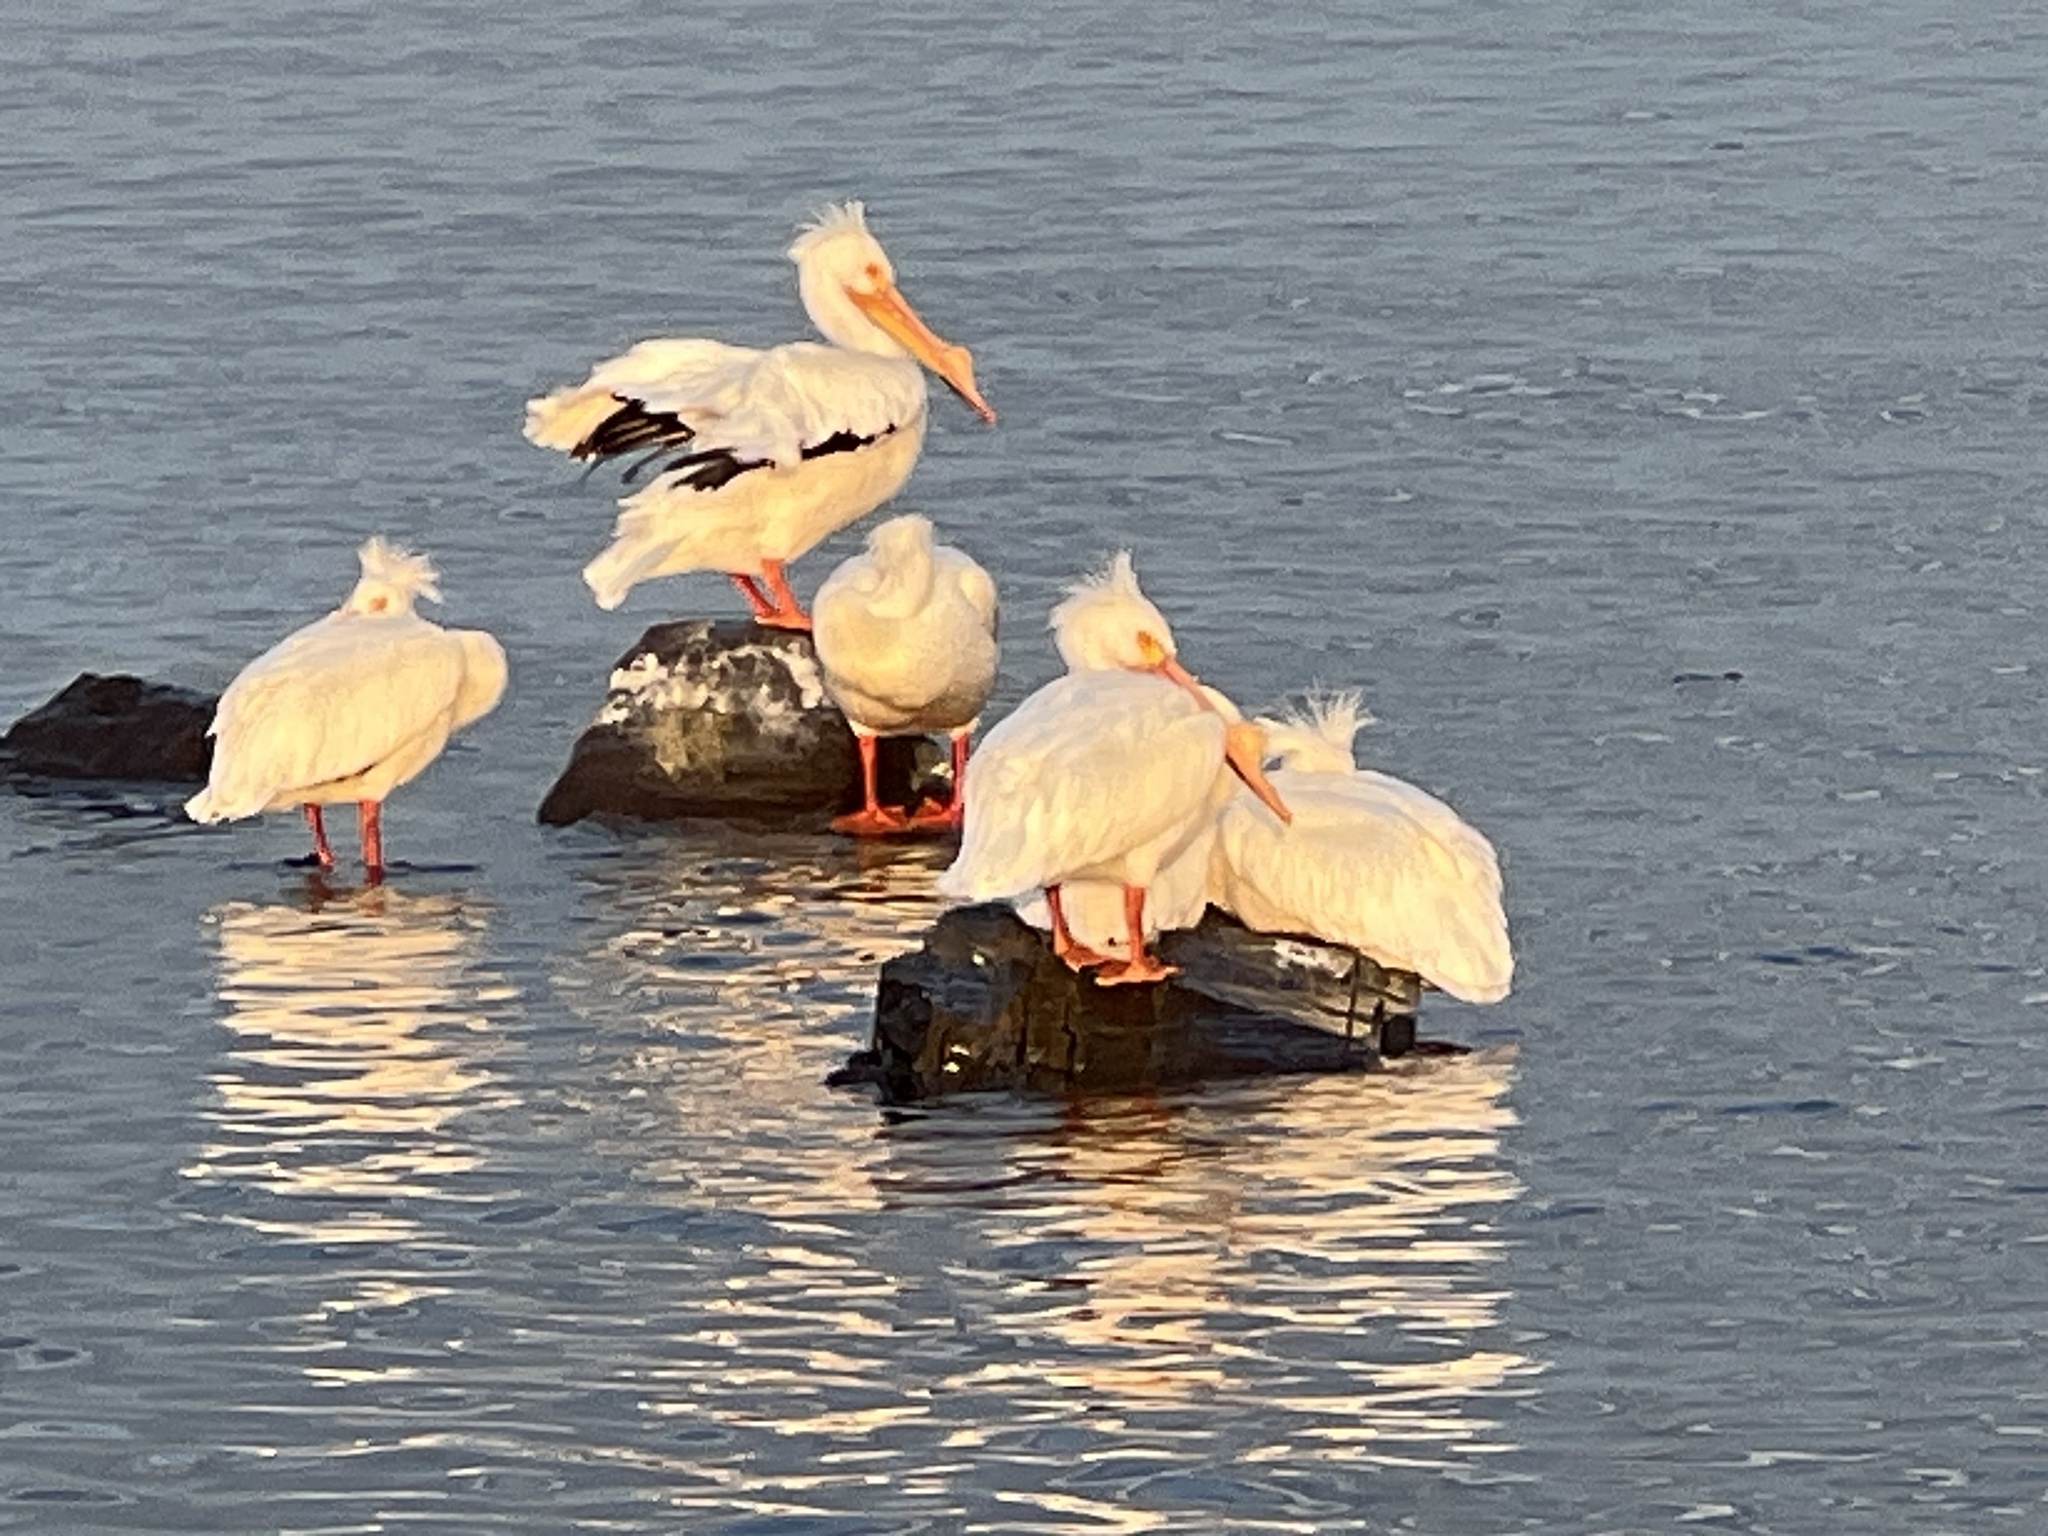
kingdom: Animalia
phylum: Chordata
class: Aves
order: Pelecaniformes
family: Pelecanidae
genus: Pelecanus
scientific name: Pelecanus erythrorhynchos
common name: American white pelican
